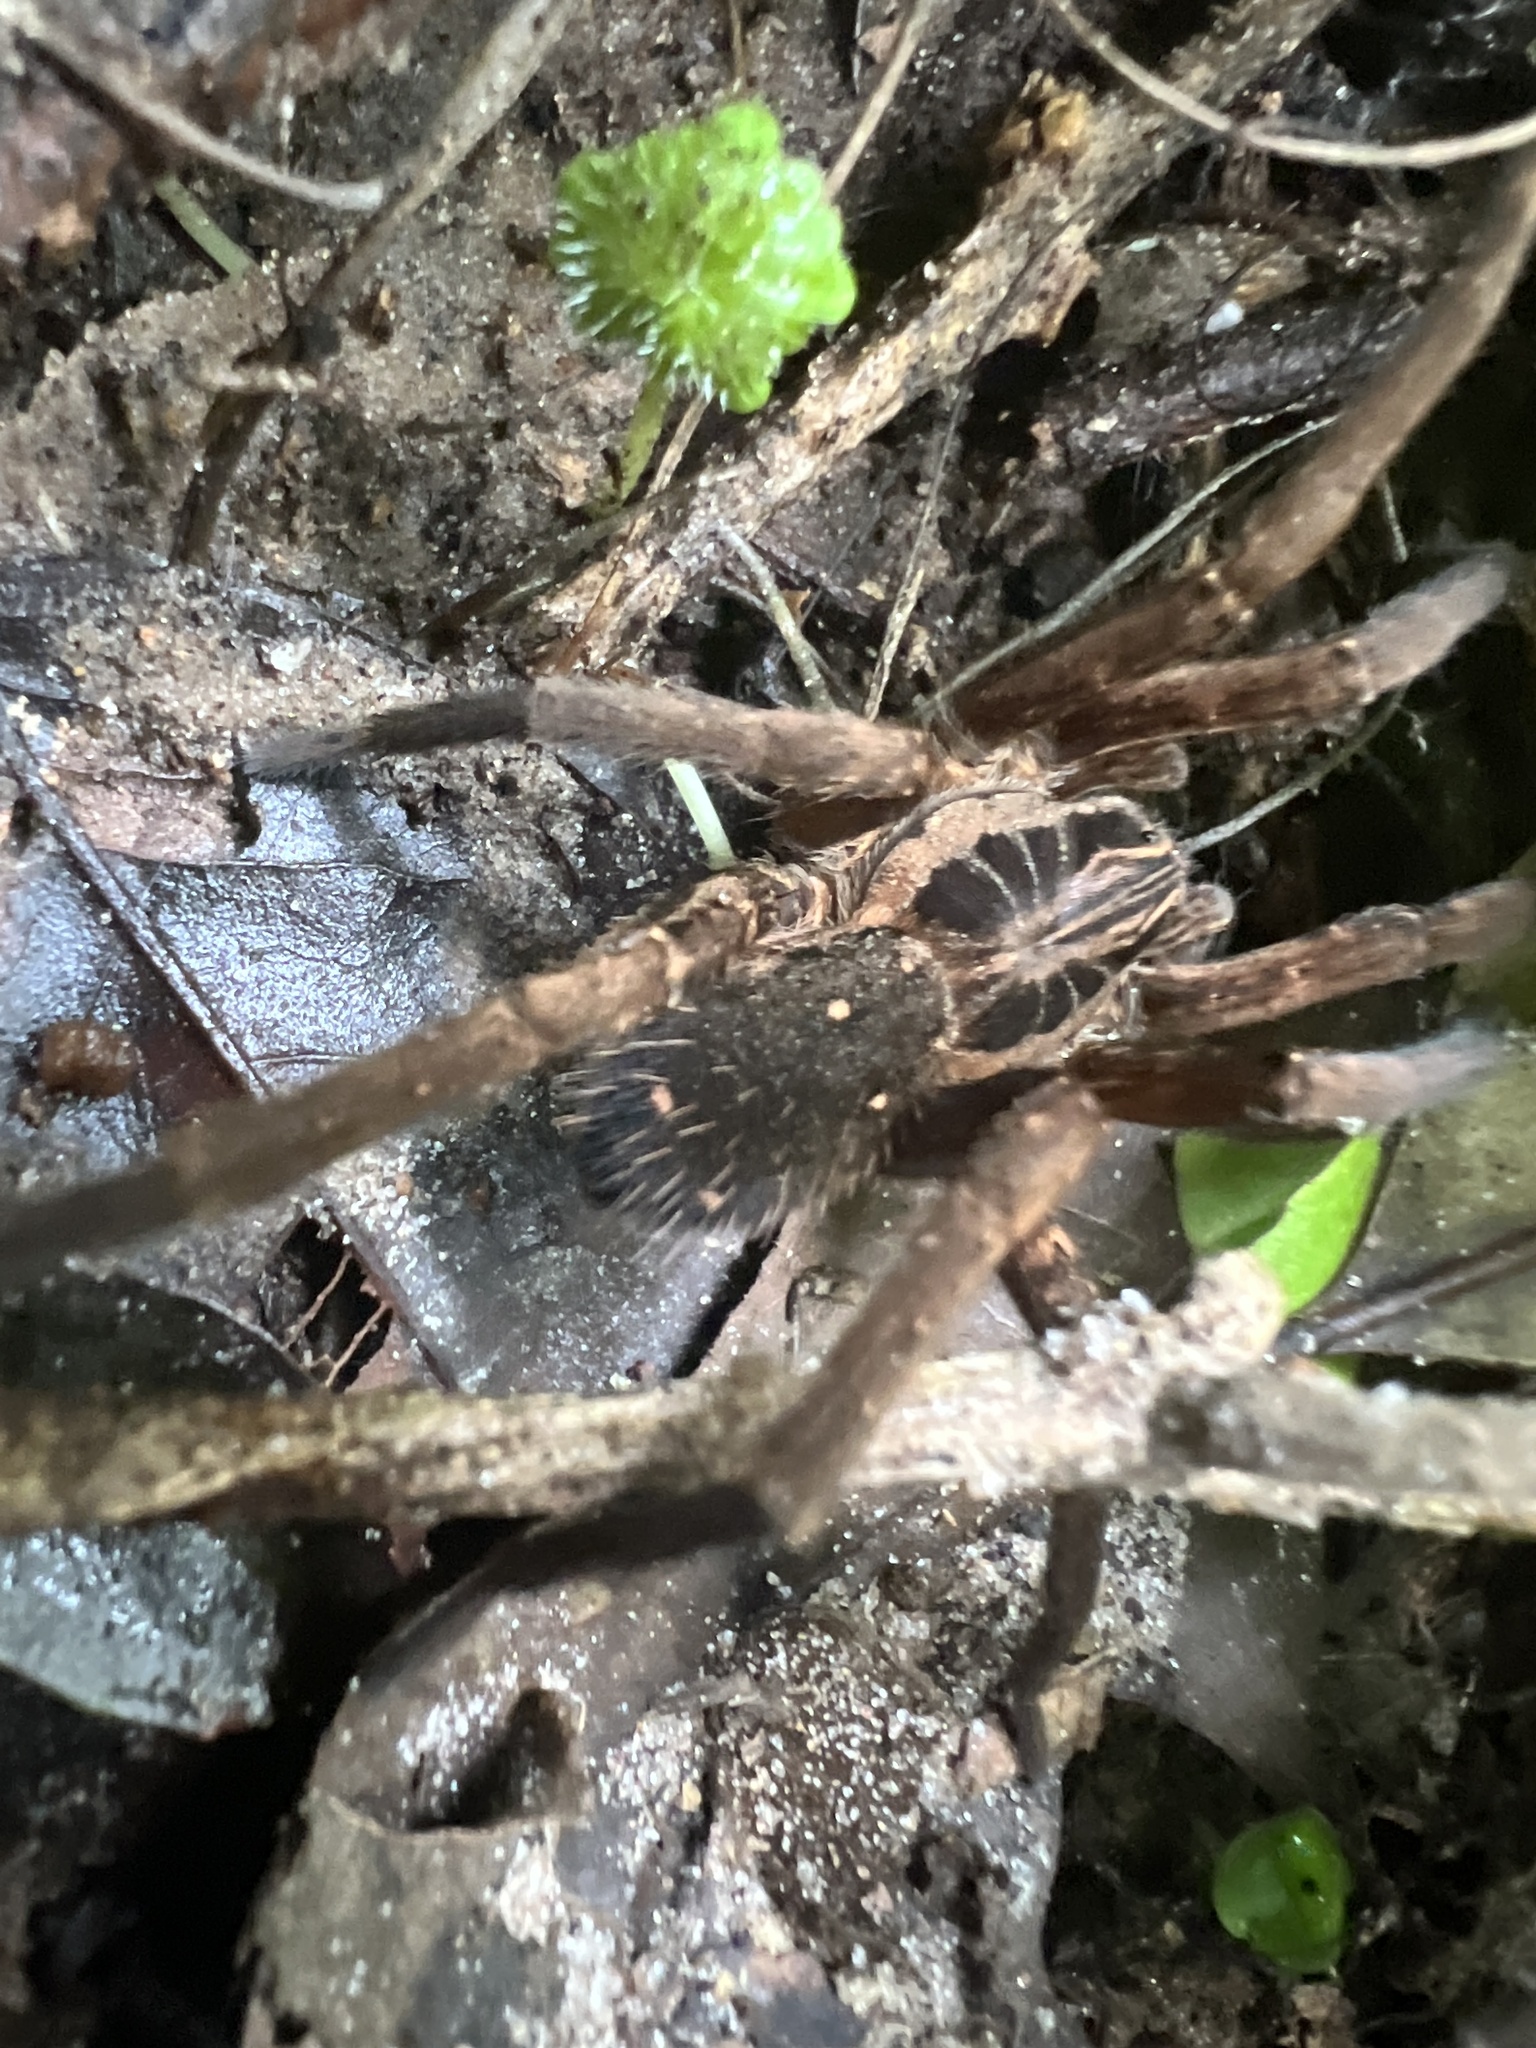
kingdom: Animalia
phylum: Arthropoda
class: Arachnida
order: Araneae
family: Ctenidae
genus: Ancylometes
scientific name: Ancylometes concolor
